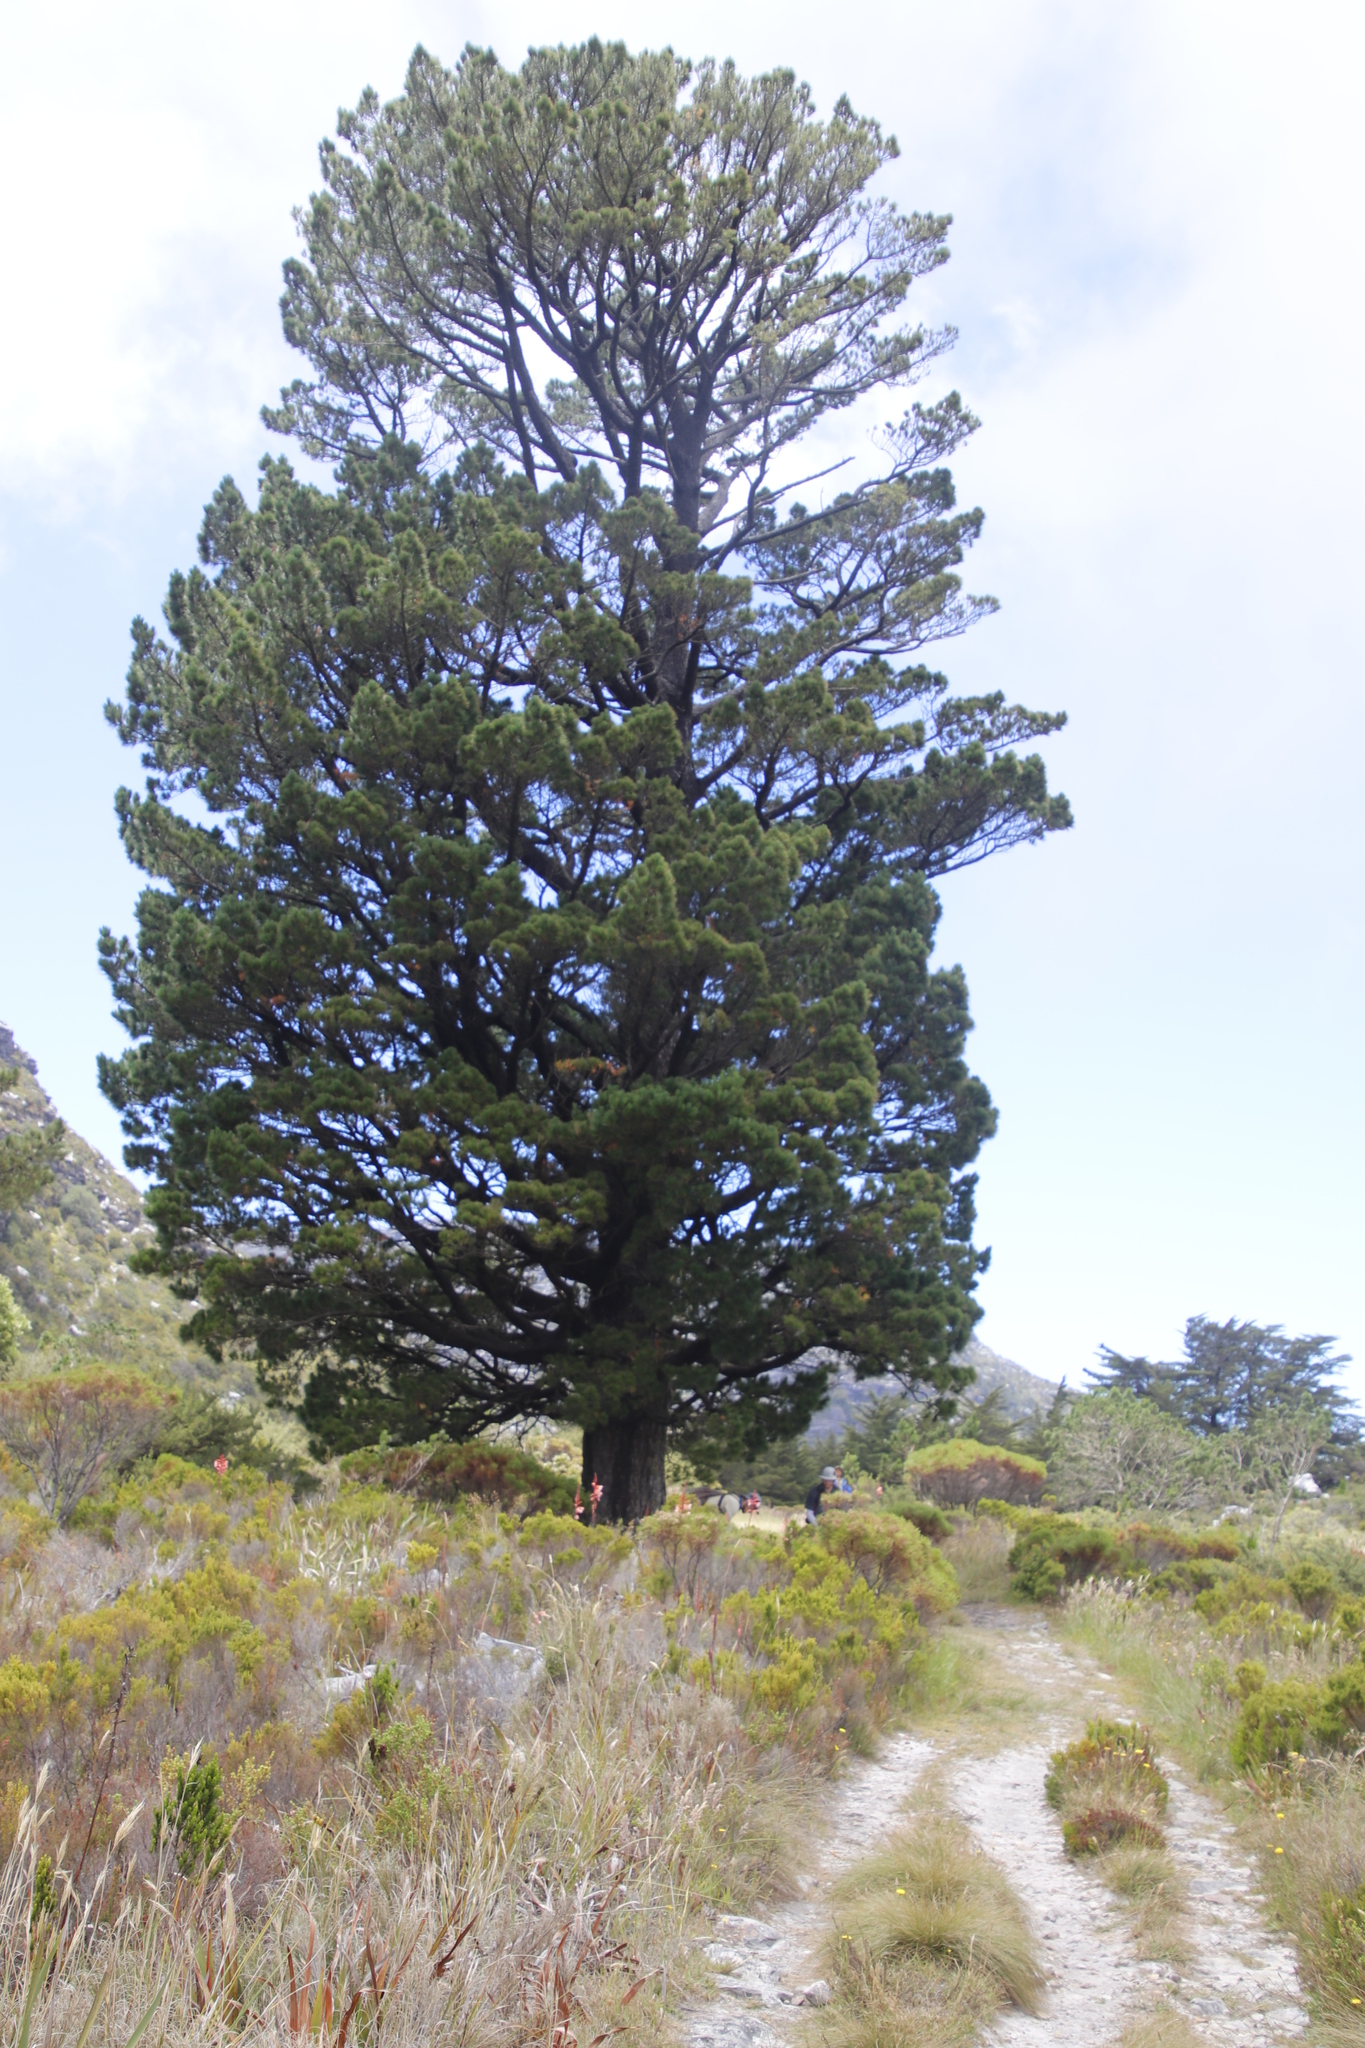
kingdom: Plantae
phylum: Tracheophyta
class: Pinopsida
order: Pinales
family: Pinaceae
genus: Pinus
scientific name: Pinus radiata
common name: Monterey pine
